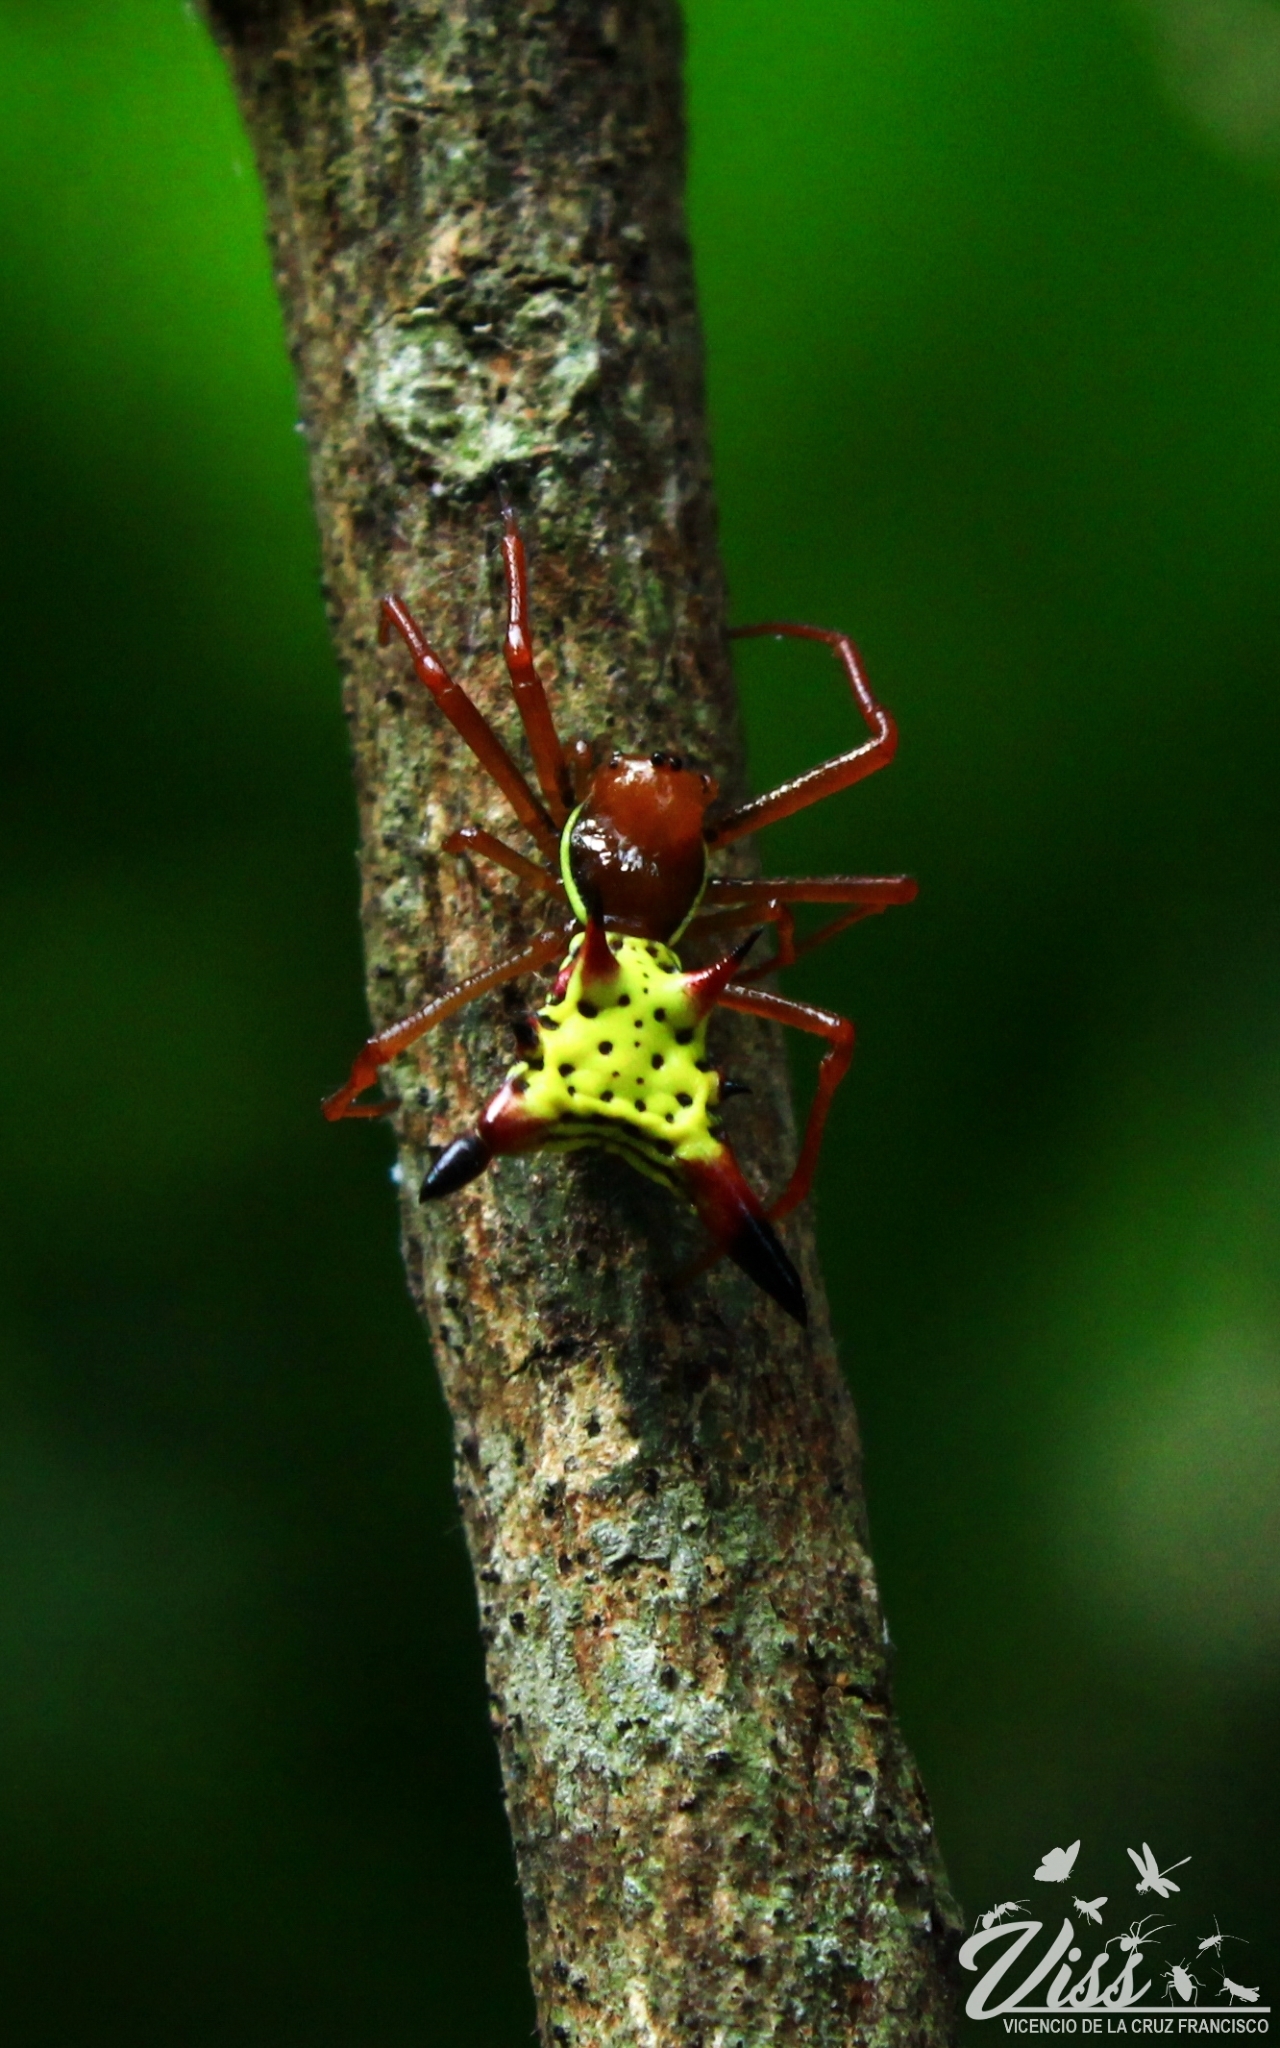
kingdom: Animalia
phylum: Arthropoda
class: Arachnida
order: Araneae
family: Araneidae
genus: Micrathena
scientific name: Micrathena sagittata
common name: Orb weavers
